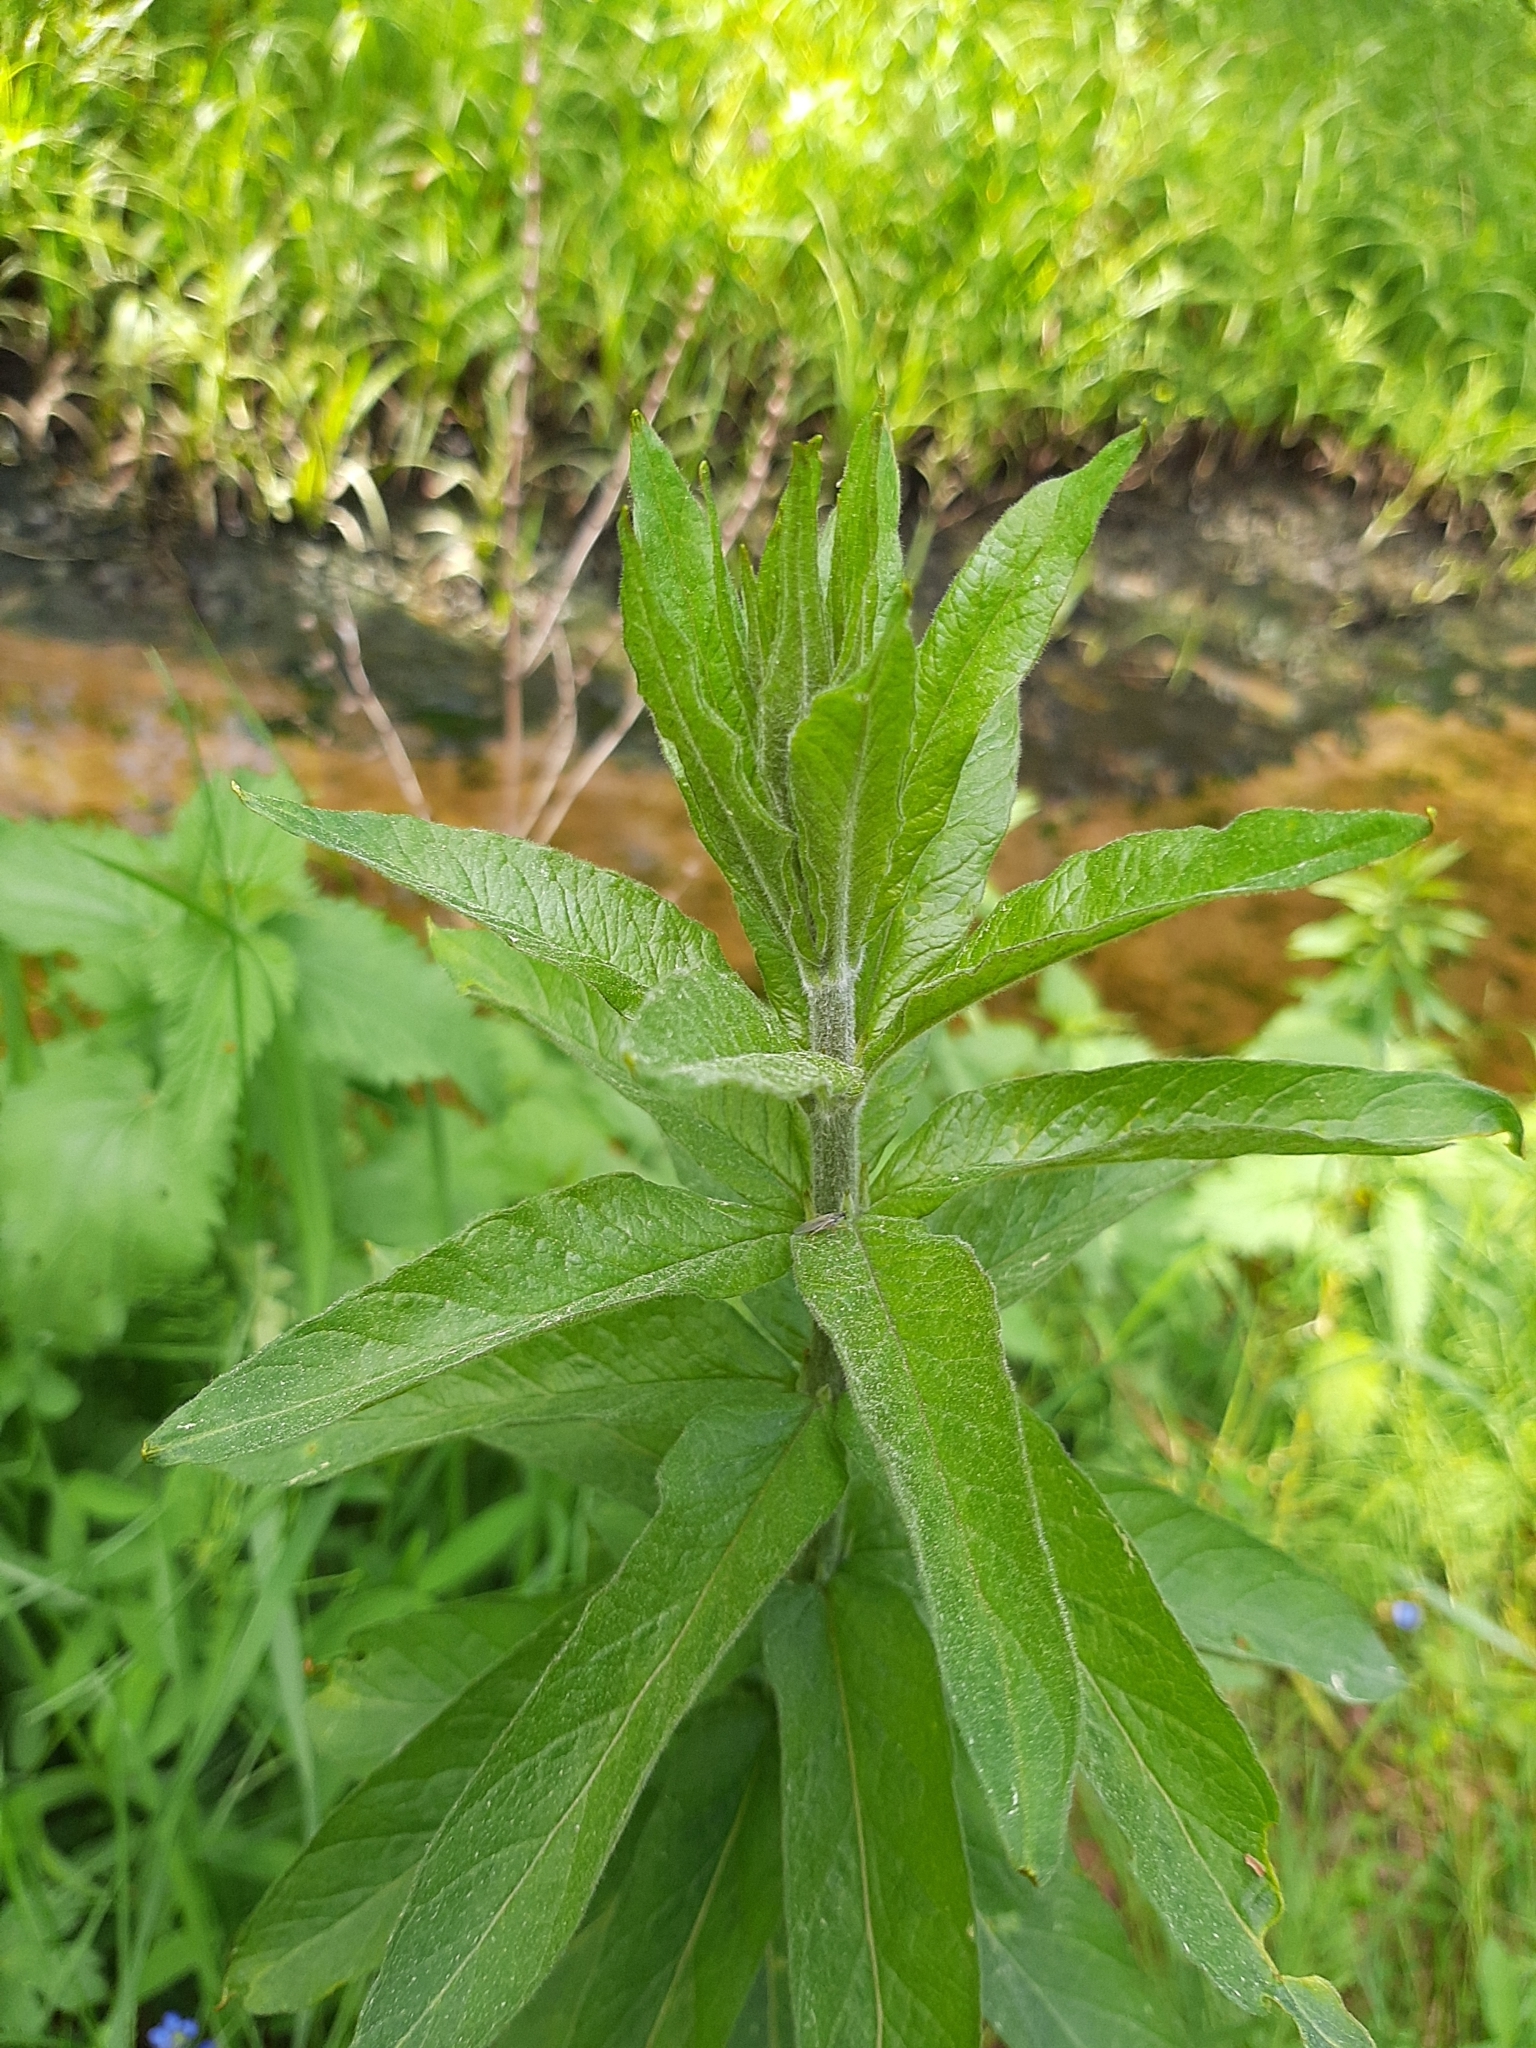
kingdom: Plantae
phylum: Tracheophyta
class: Magnoliopsida
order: Ericales
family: Primulaceae
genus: Lysimachia
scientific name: Lysimachia vulgaris
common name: Yellow loosestrife
